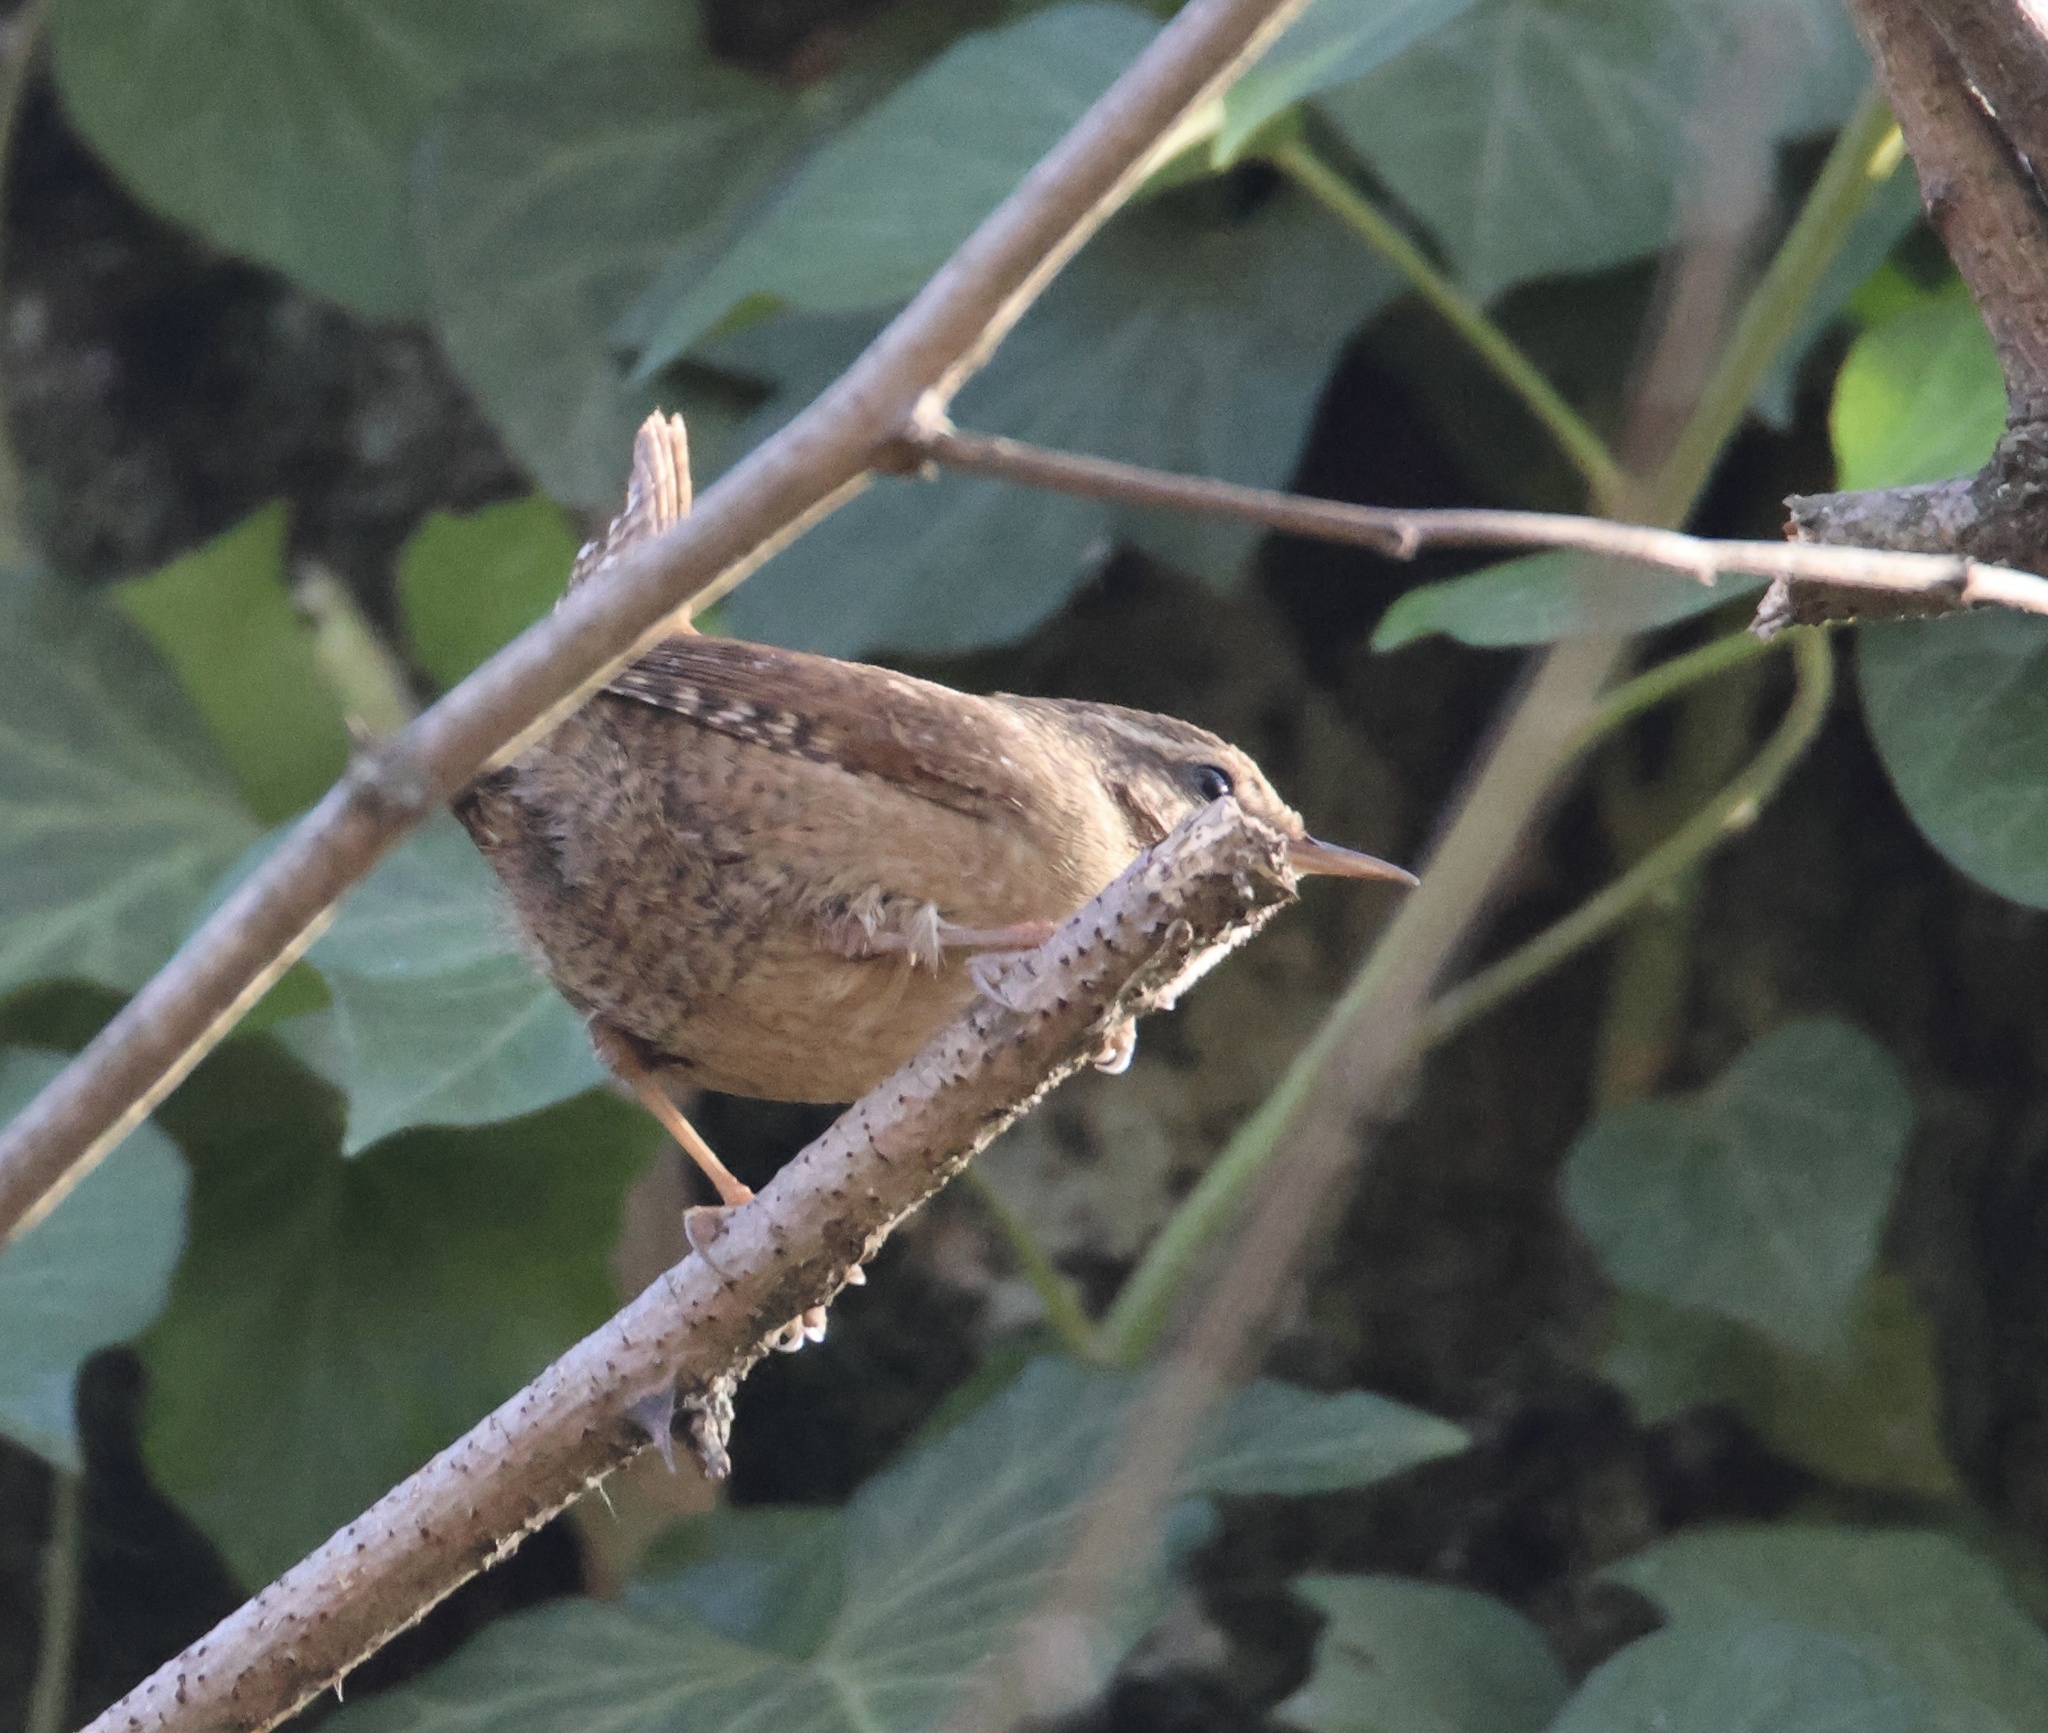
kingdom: Animalia
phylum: Chordata
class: Aves
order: Passeriformes
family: Troglodytidae
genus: Troglodytes
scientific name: Troglodytes troglodytes
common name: Eurasian wren
